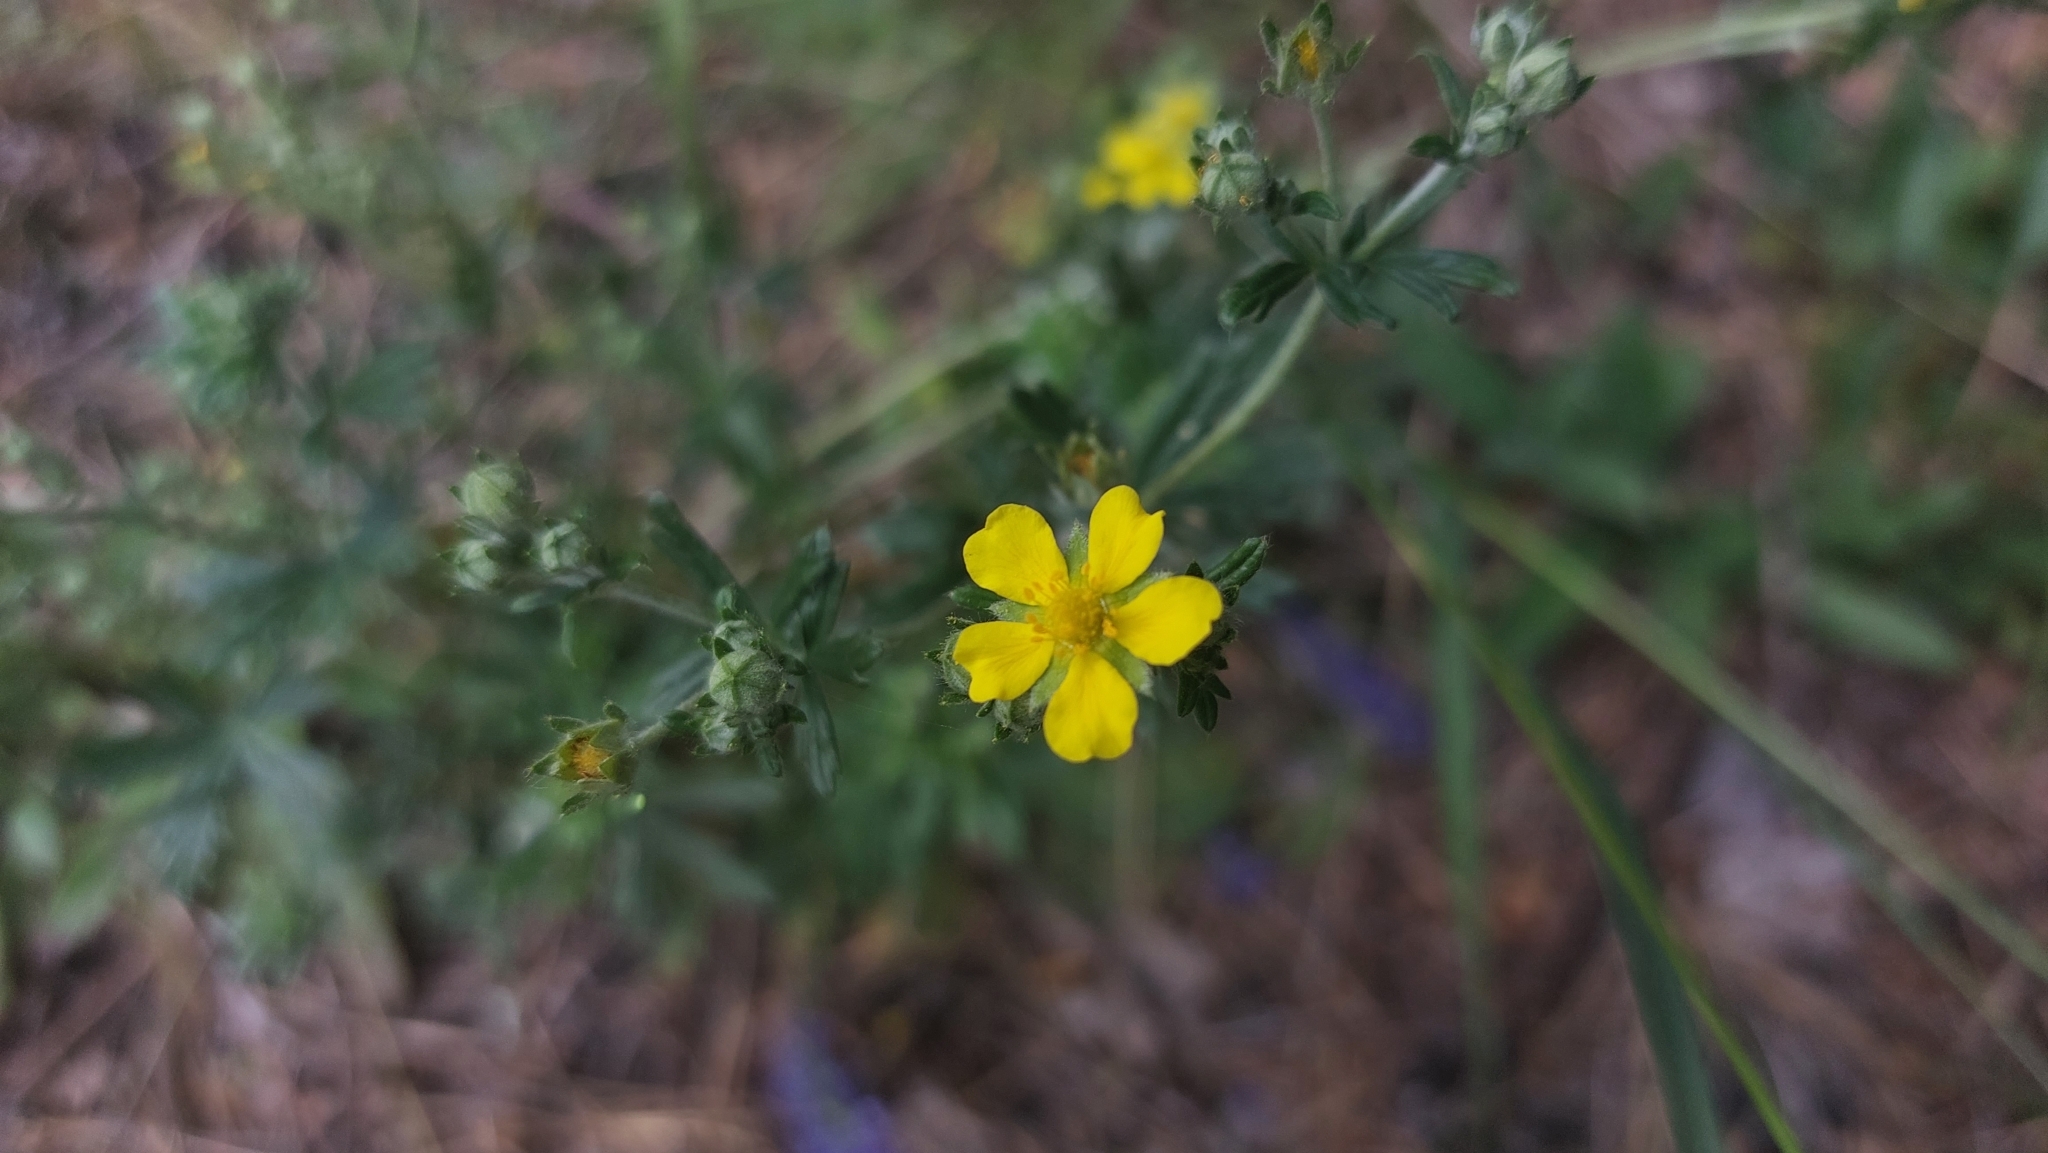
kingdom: Plantae
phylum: Tracheophyta
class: Magnoliopsida
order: Rosales
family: Rosaceae
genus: Potentilla
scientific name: Potentilla argentea
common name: Hoary cinquefoil
